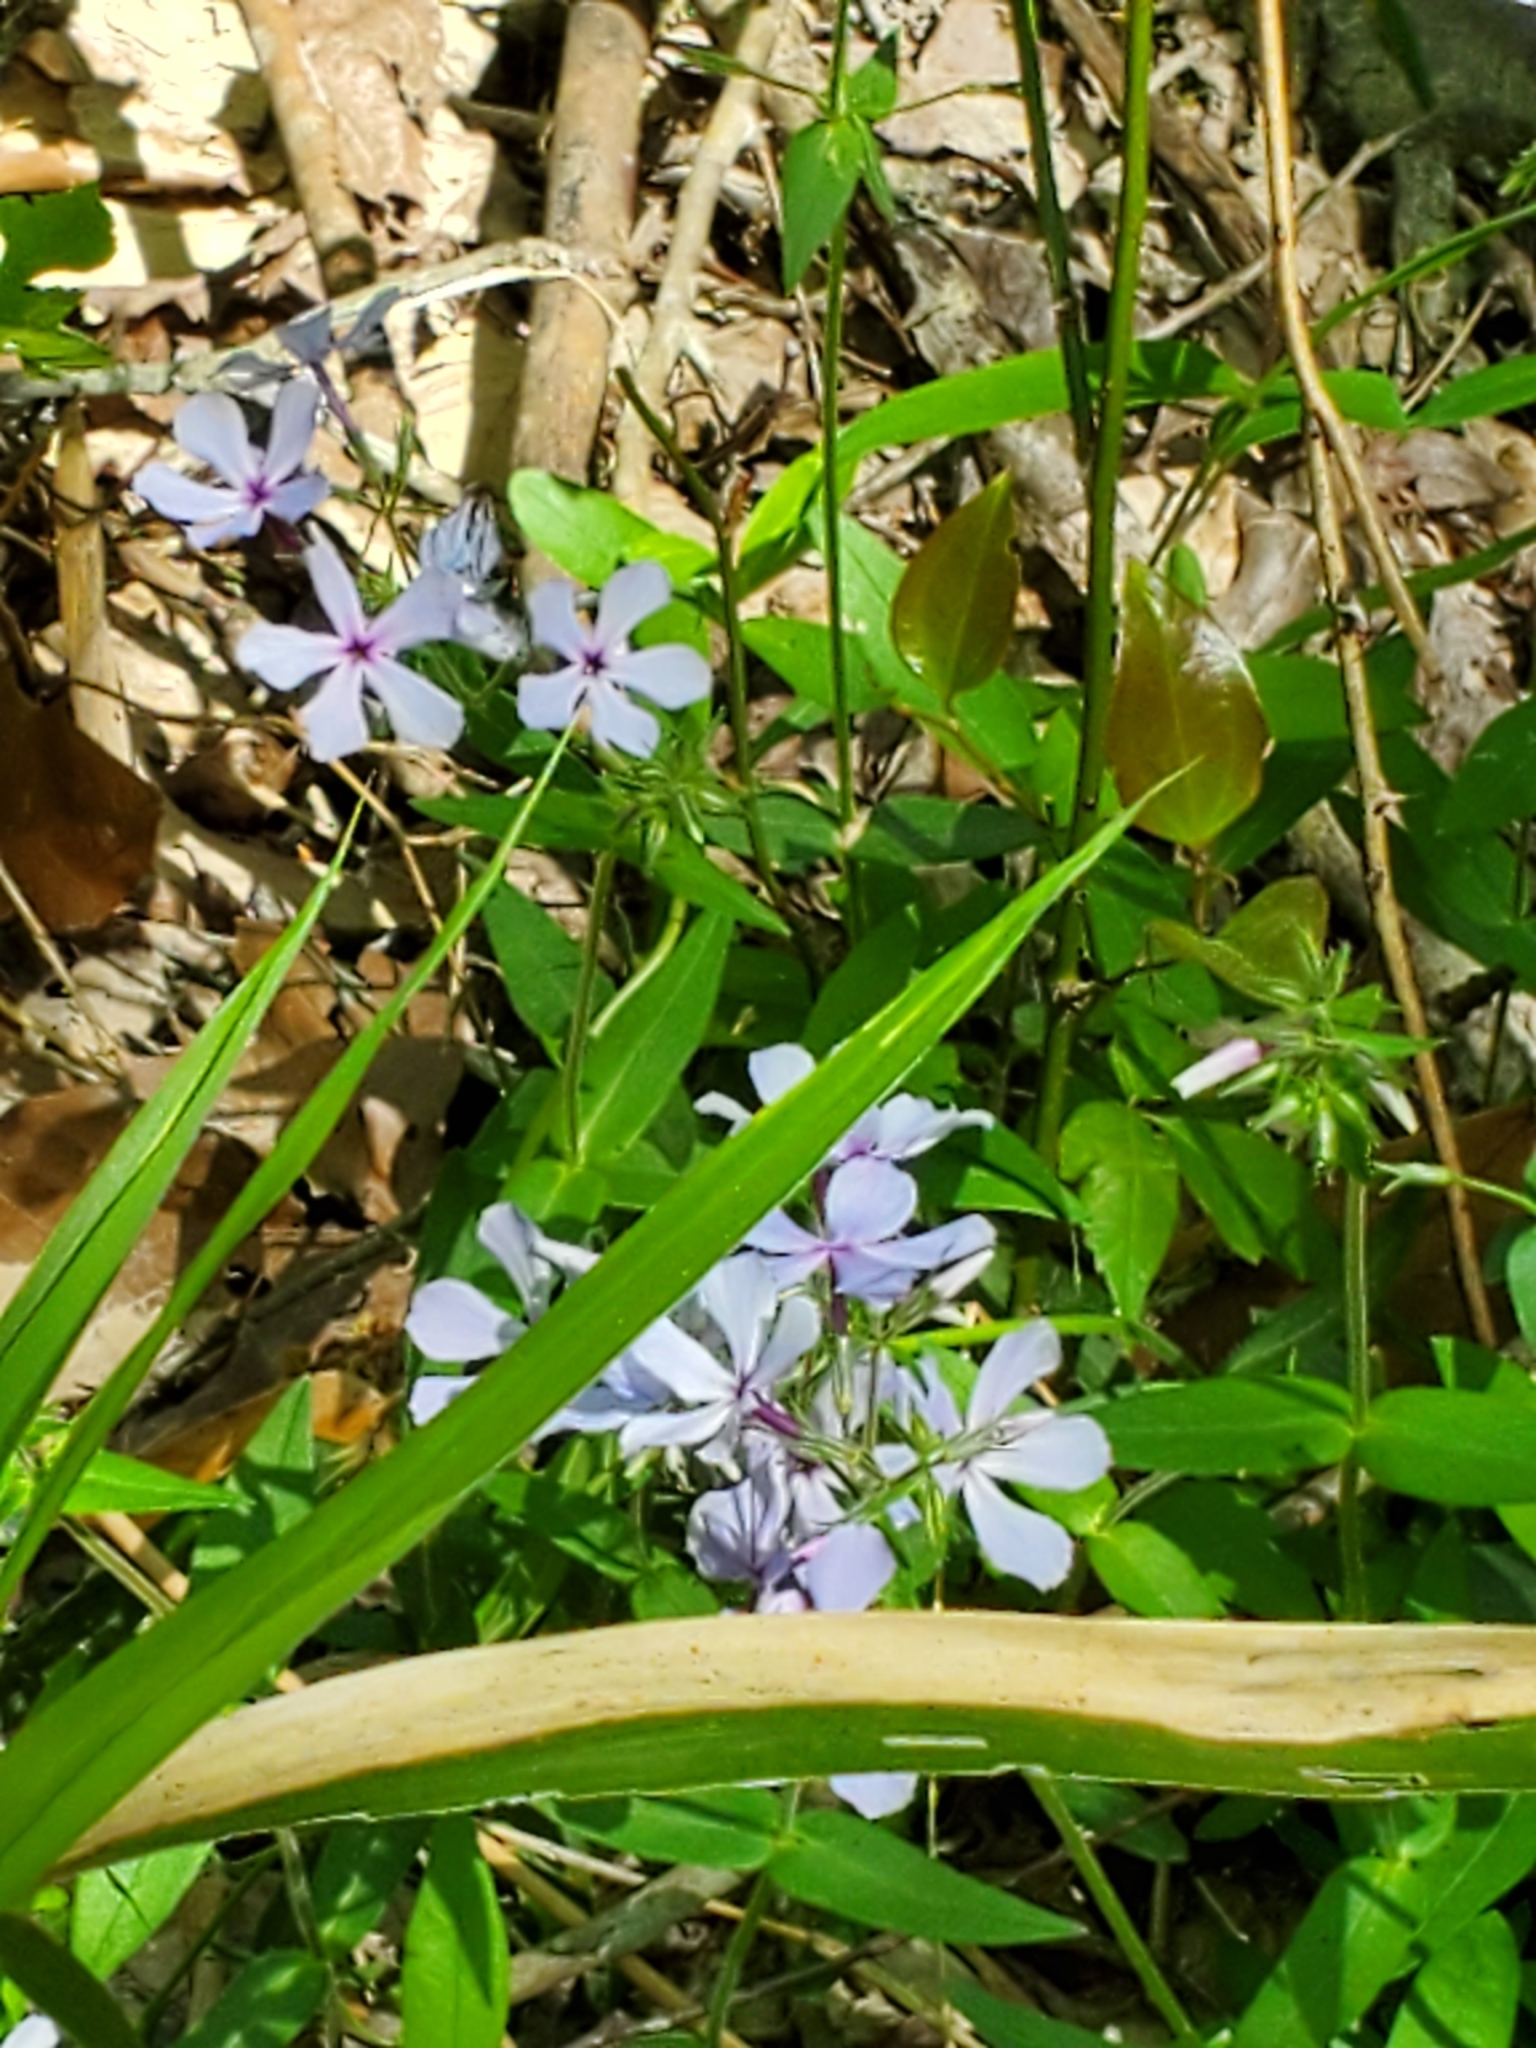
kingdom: Plantae
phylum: Tracheophyta
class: Magnoliopsida
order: Ericales
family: Polemoniaceae
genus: Phlox
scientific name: Phlox divaricata
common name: Blue phlox
